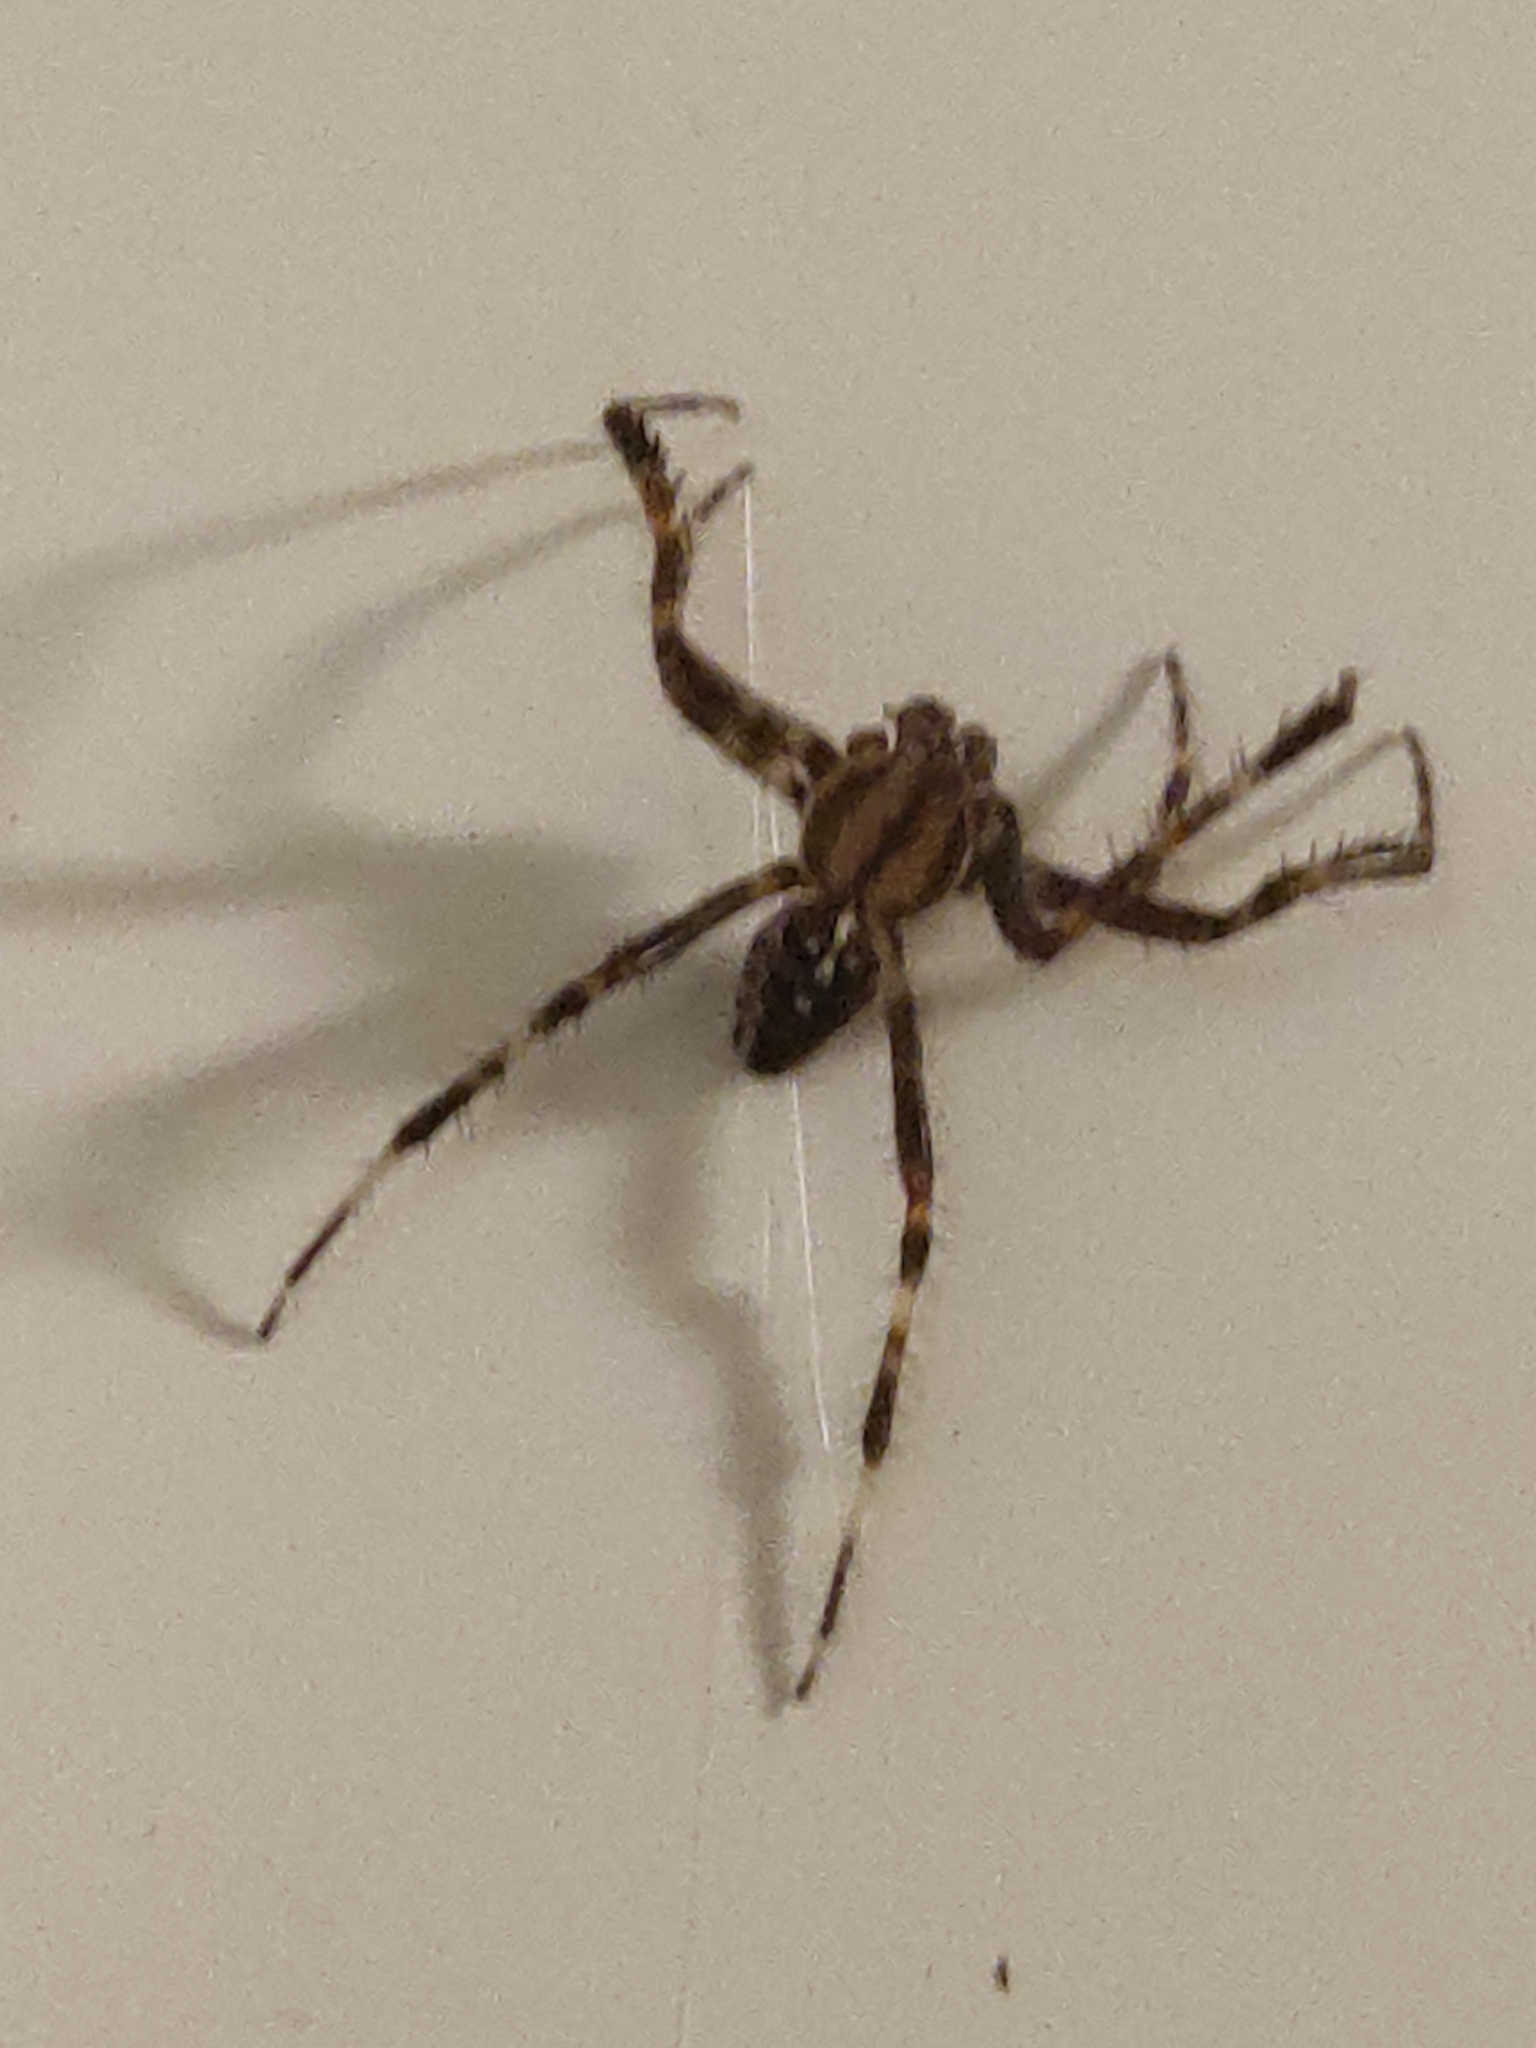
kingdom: Animalia
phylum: Arthropoda
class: Arachnida
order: Araneae
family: Araneidae
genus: Araneus
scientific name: Araneus diadematus
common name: Cross orbweaver
